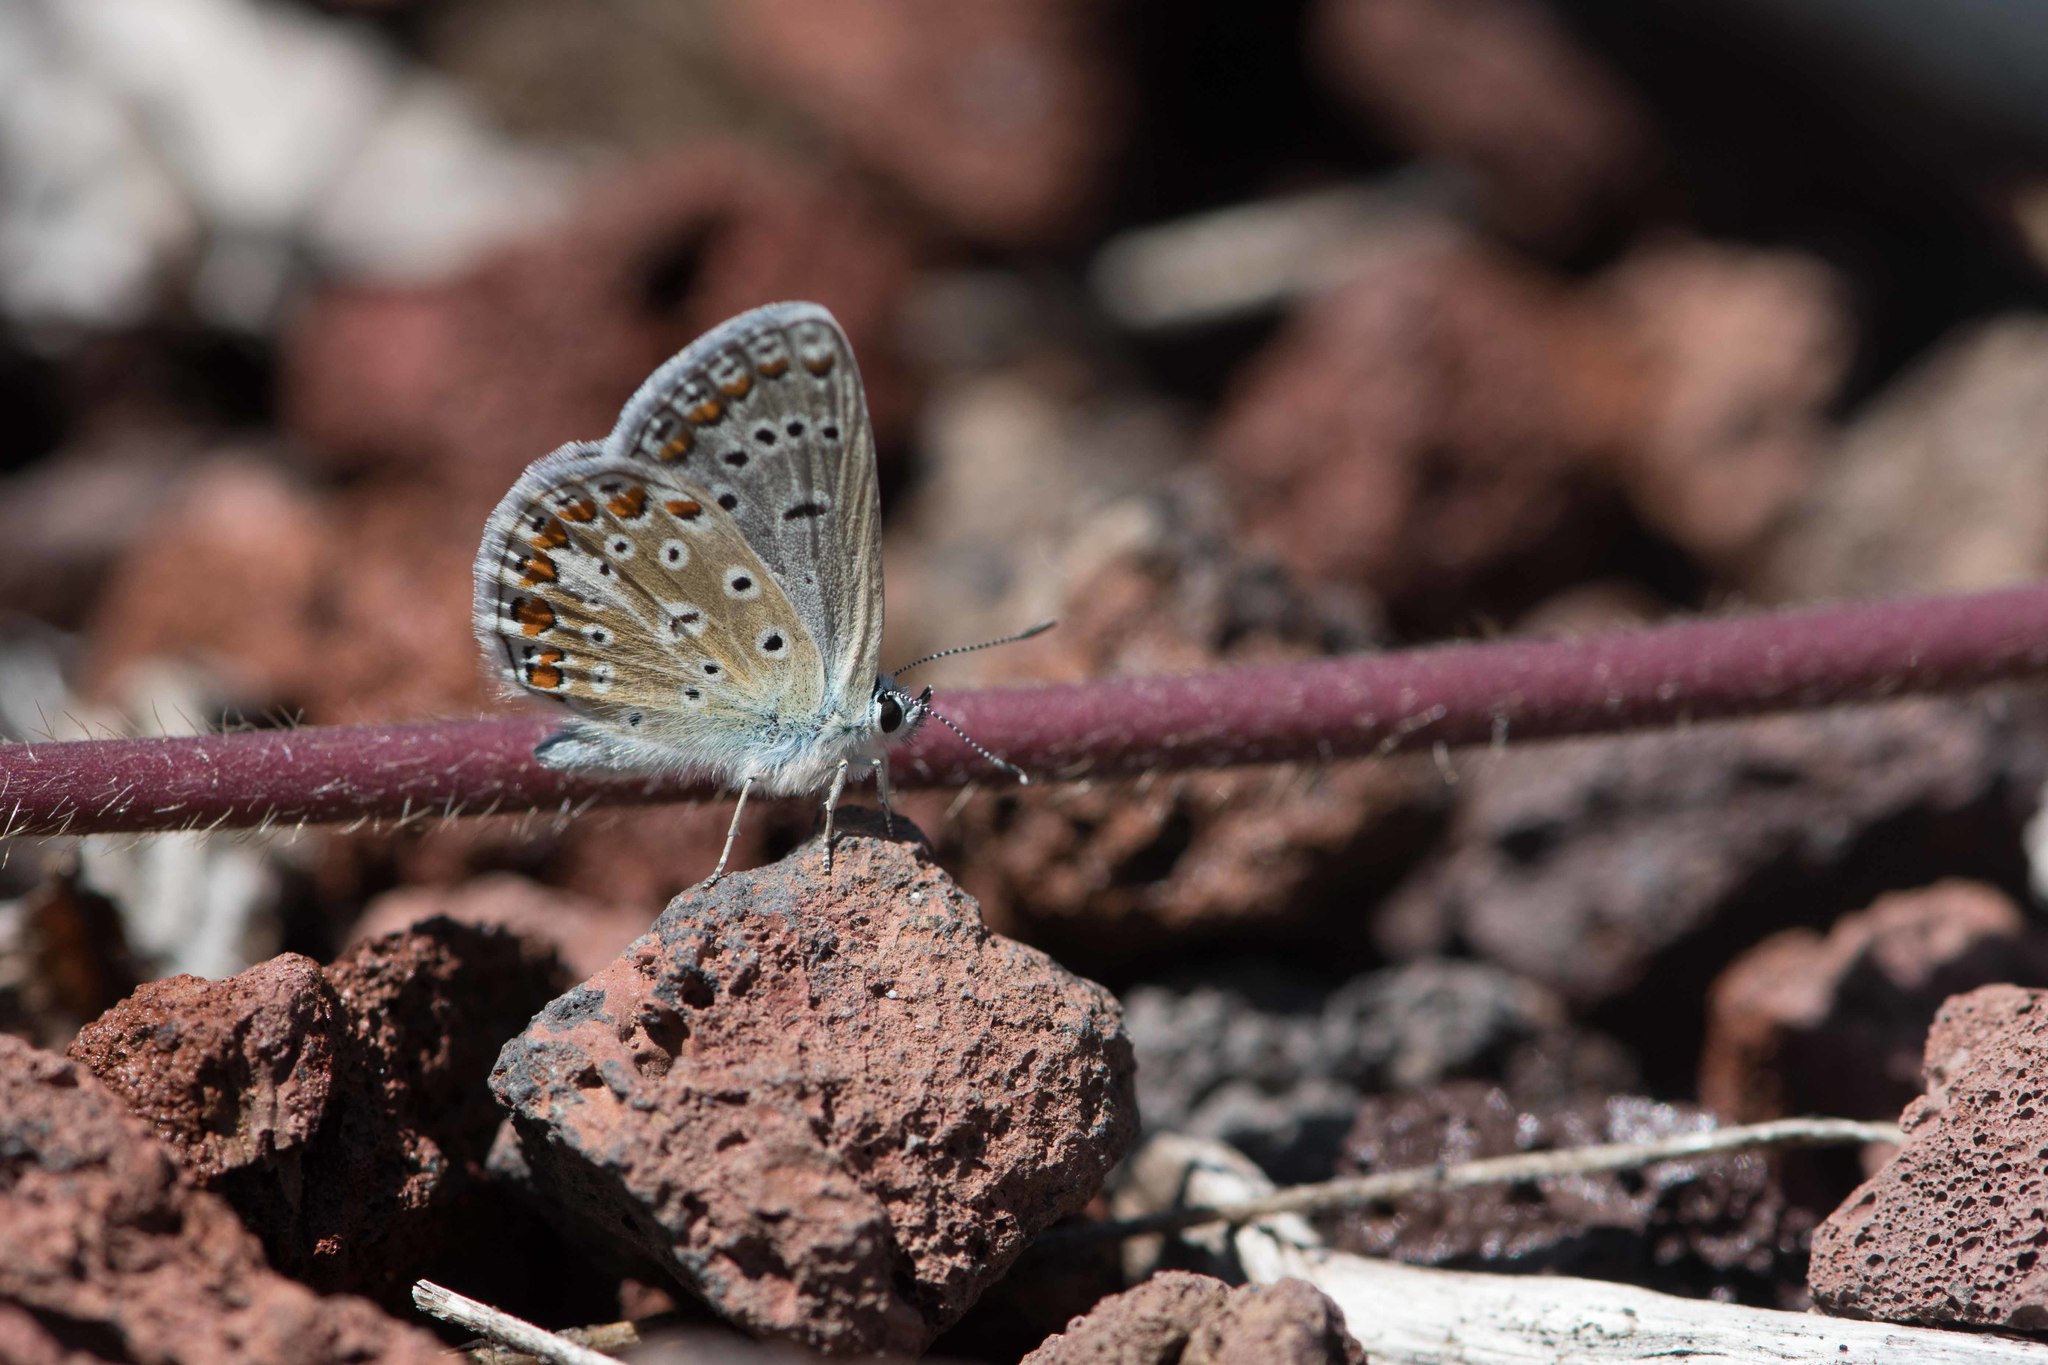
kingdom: Animalia
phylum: Arthropoda
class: Insecta
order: Lepidoptera
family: Lycaenidae
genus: Polyommatus
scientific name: Polyommatus icarus
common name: Common blue
